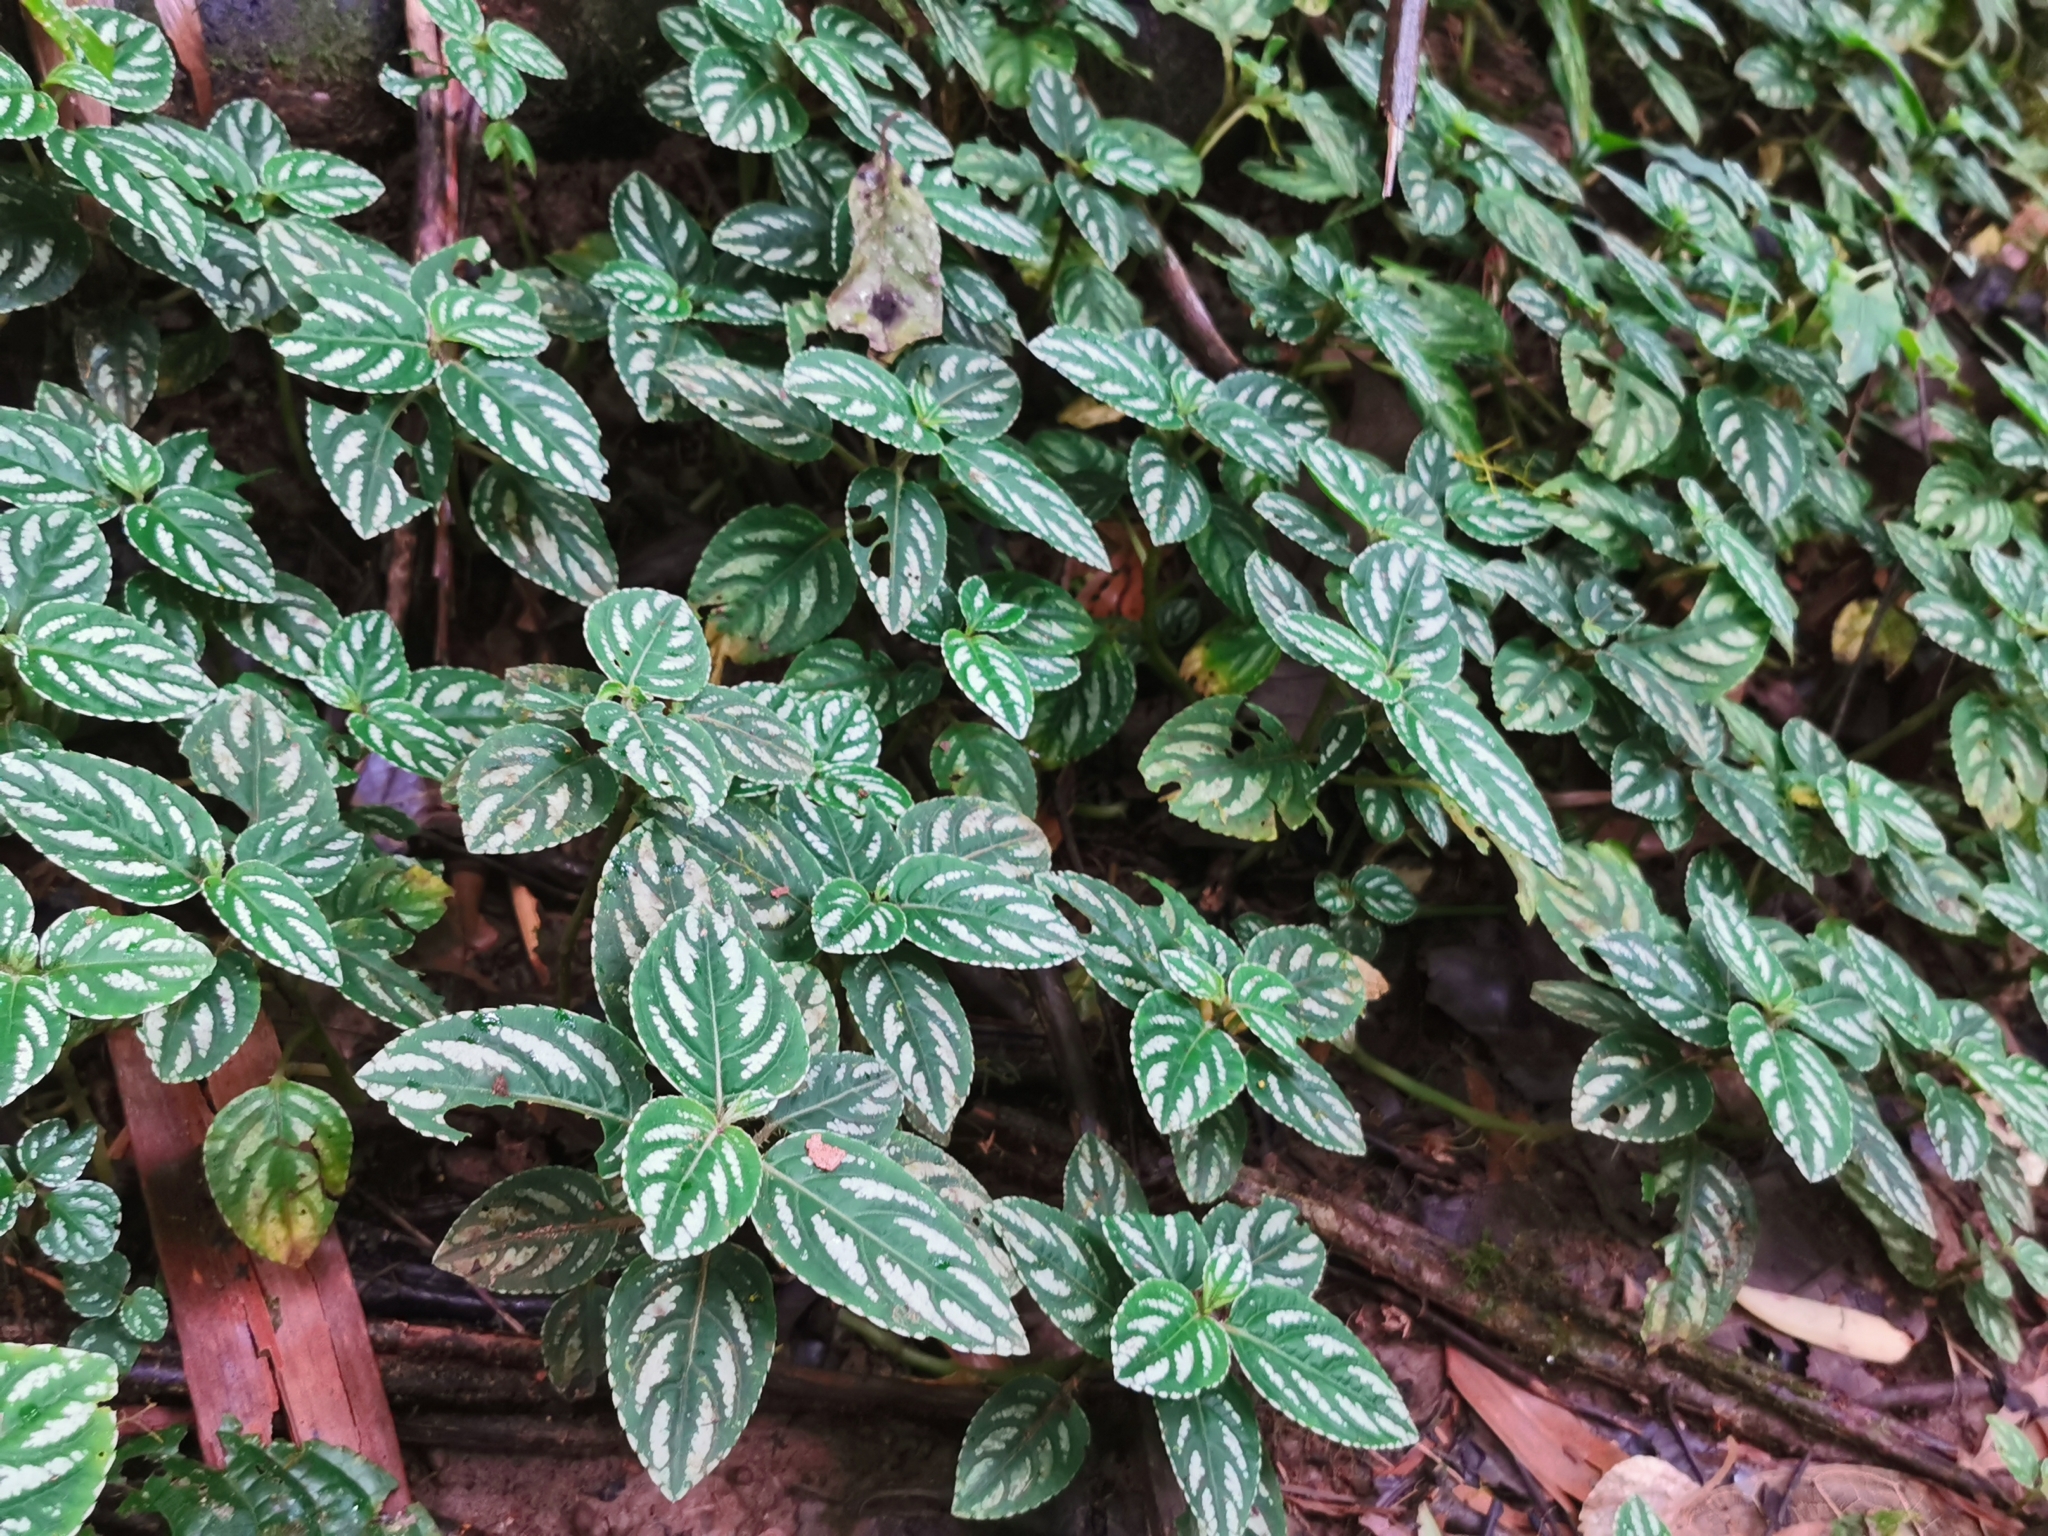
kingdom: Plantae
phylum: Tracheophyta
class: Magnoliopsida
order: Ericales
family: Balsaminaceae
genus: Impatiens
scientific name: Impatiens marianae
